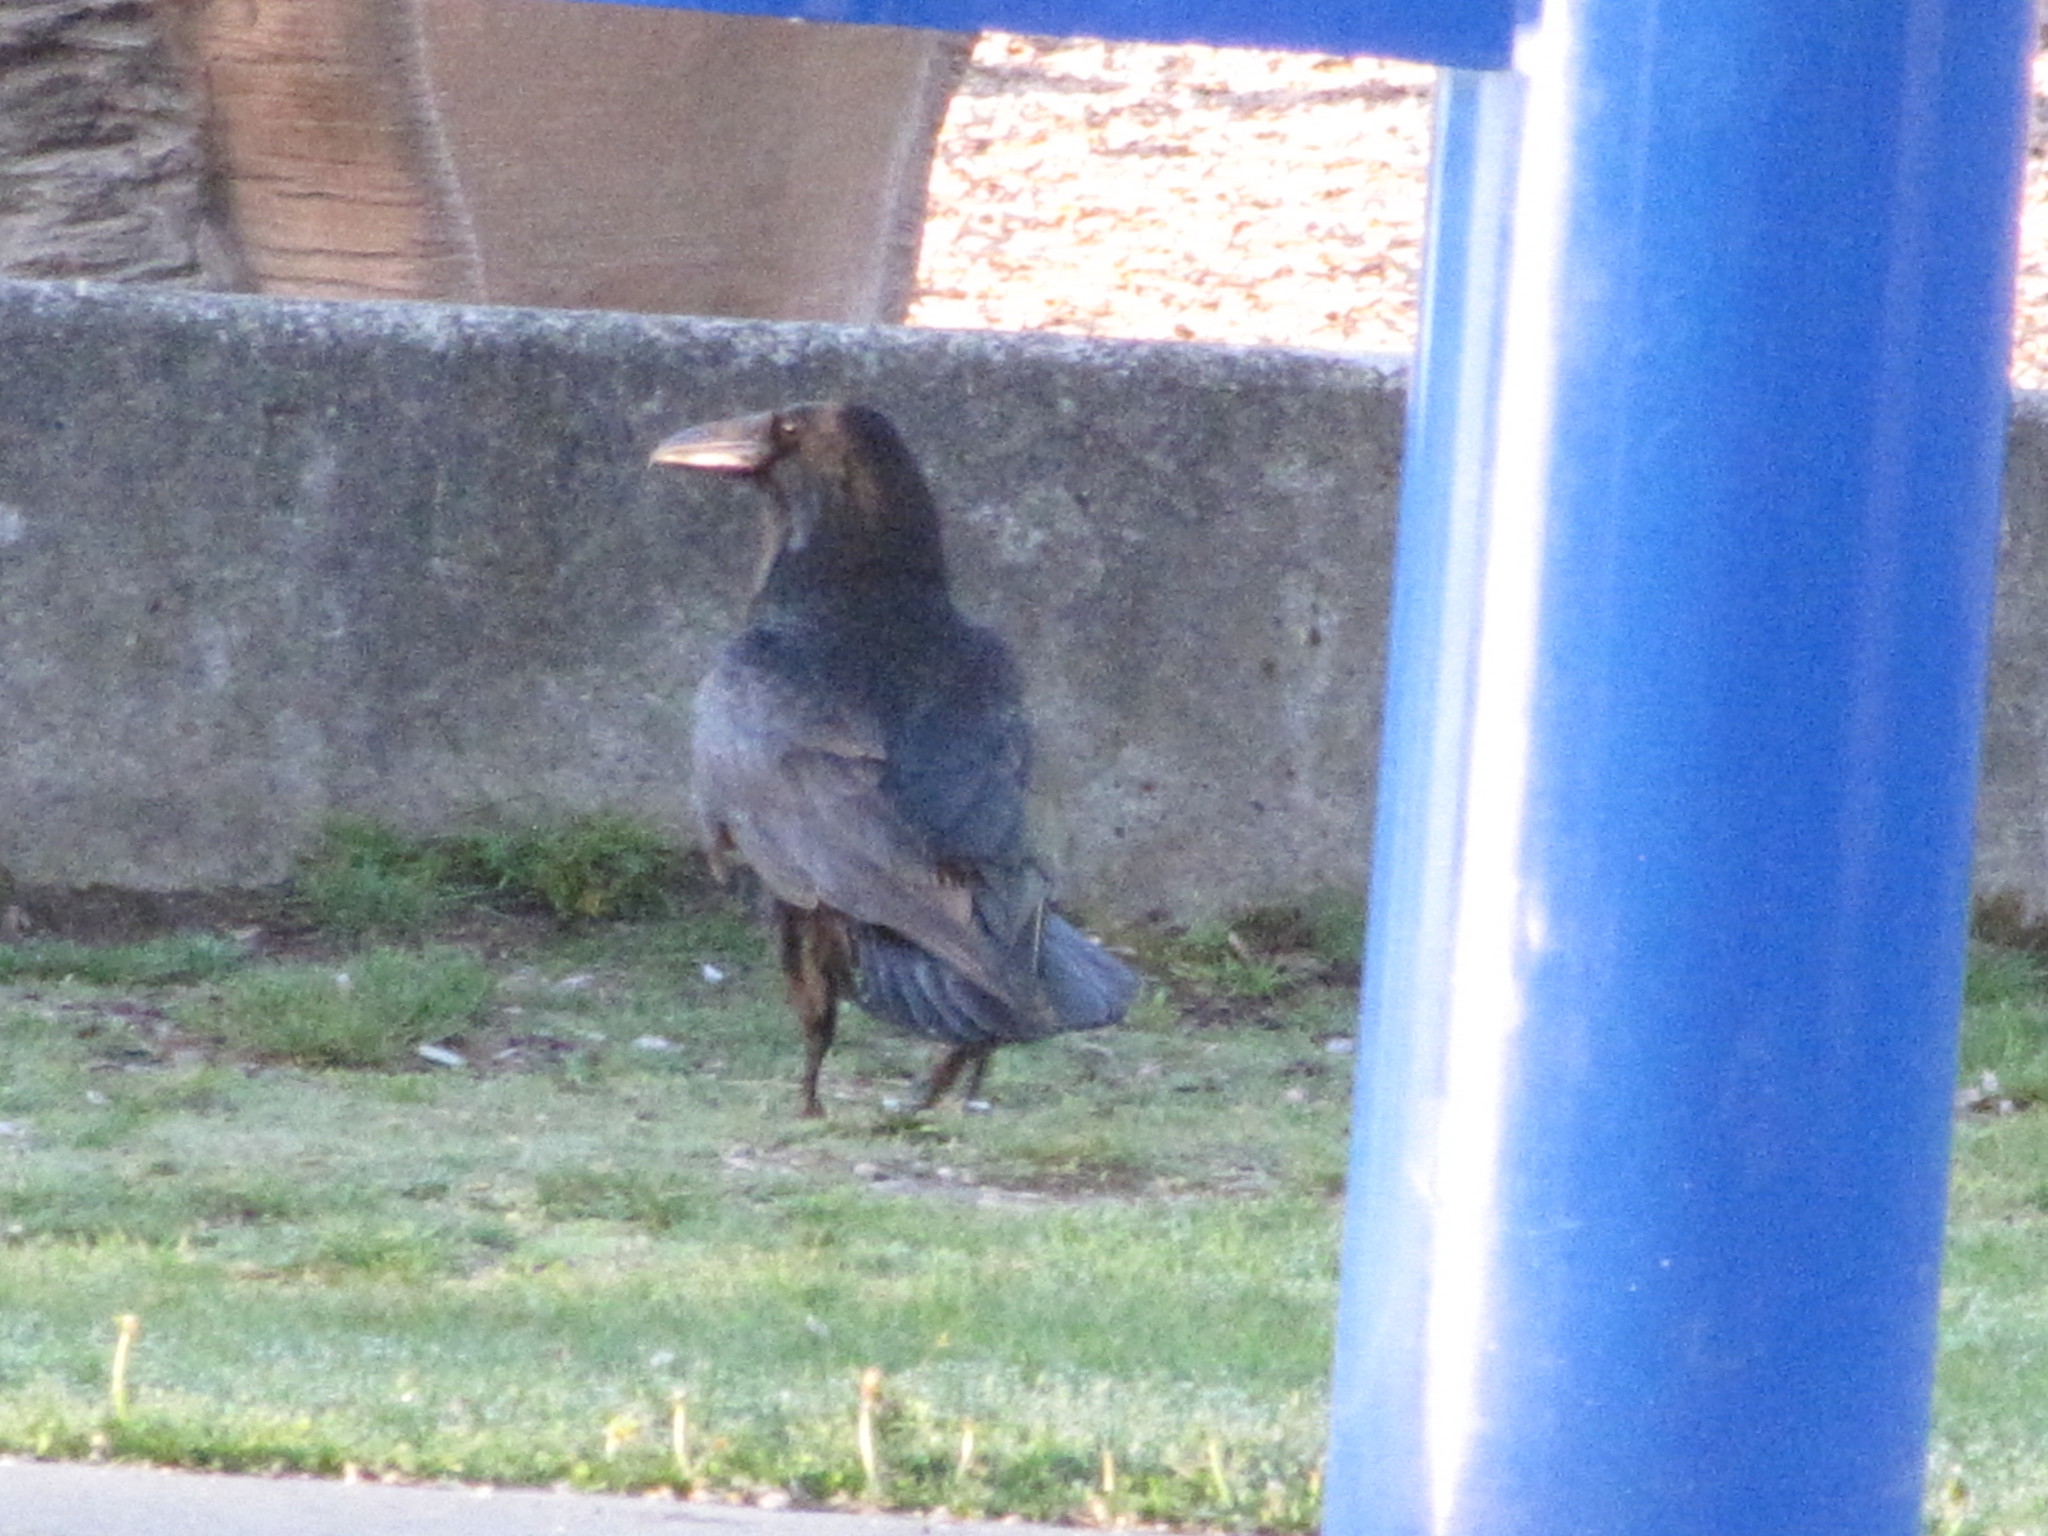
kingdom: Animalia
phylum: Chordata
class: Aves
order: Passeriformes
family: Corvidae
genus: Corvus
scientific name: Corvus corax
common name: Common raven
